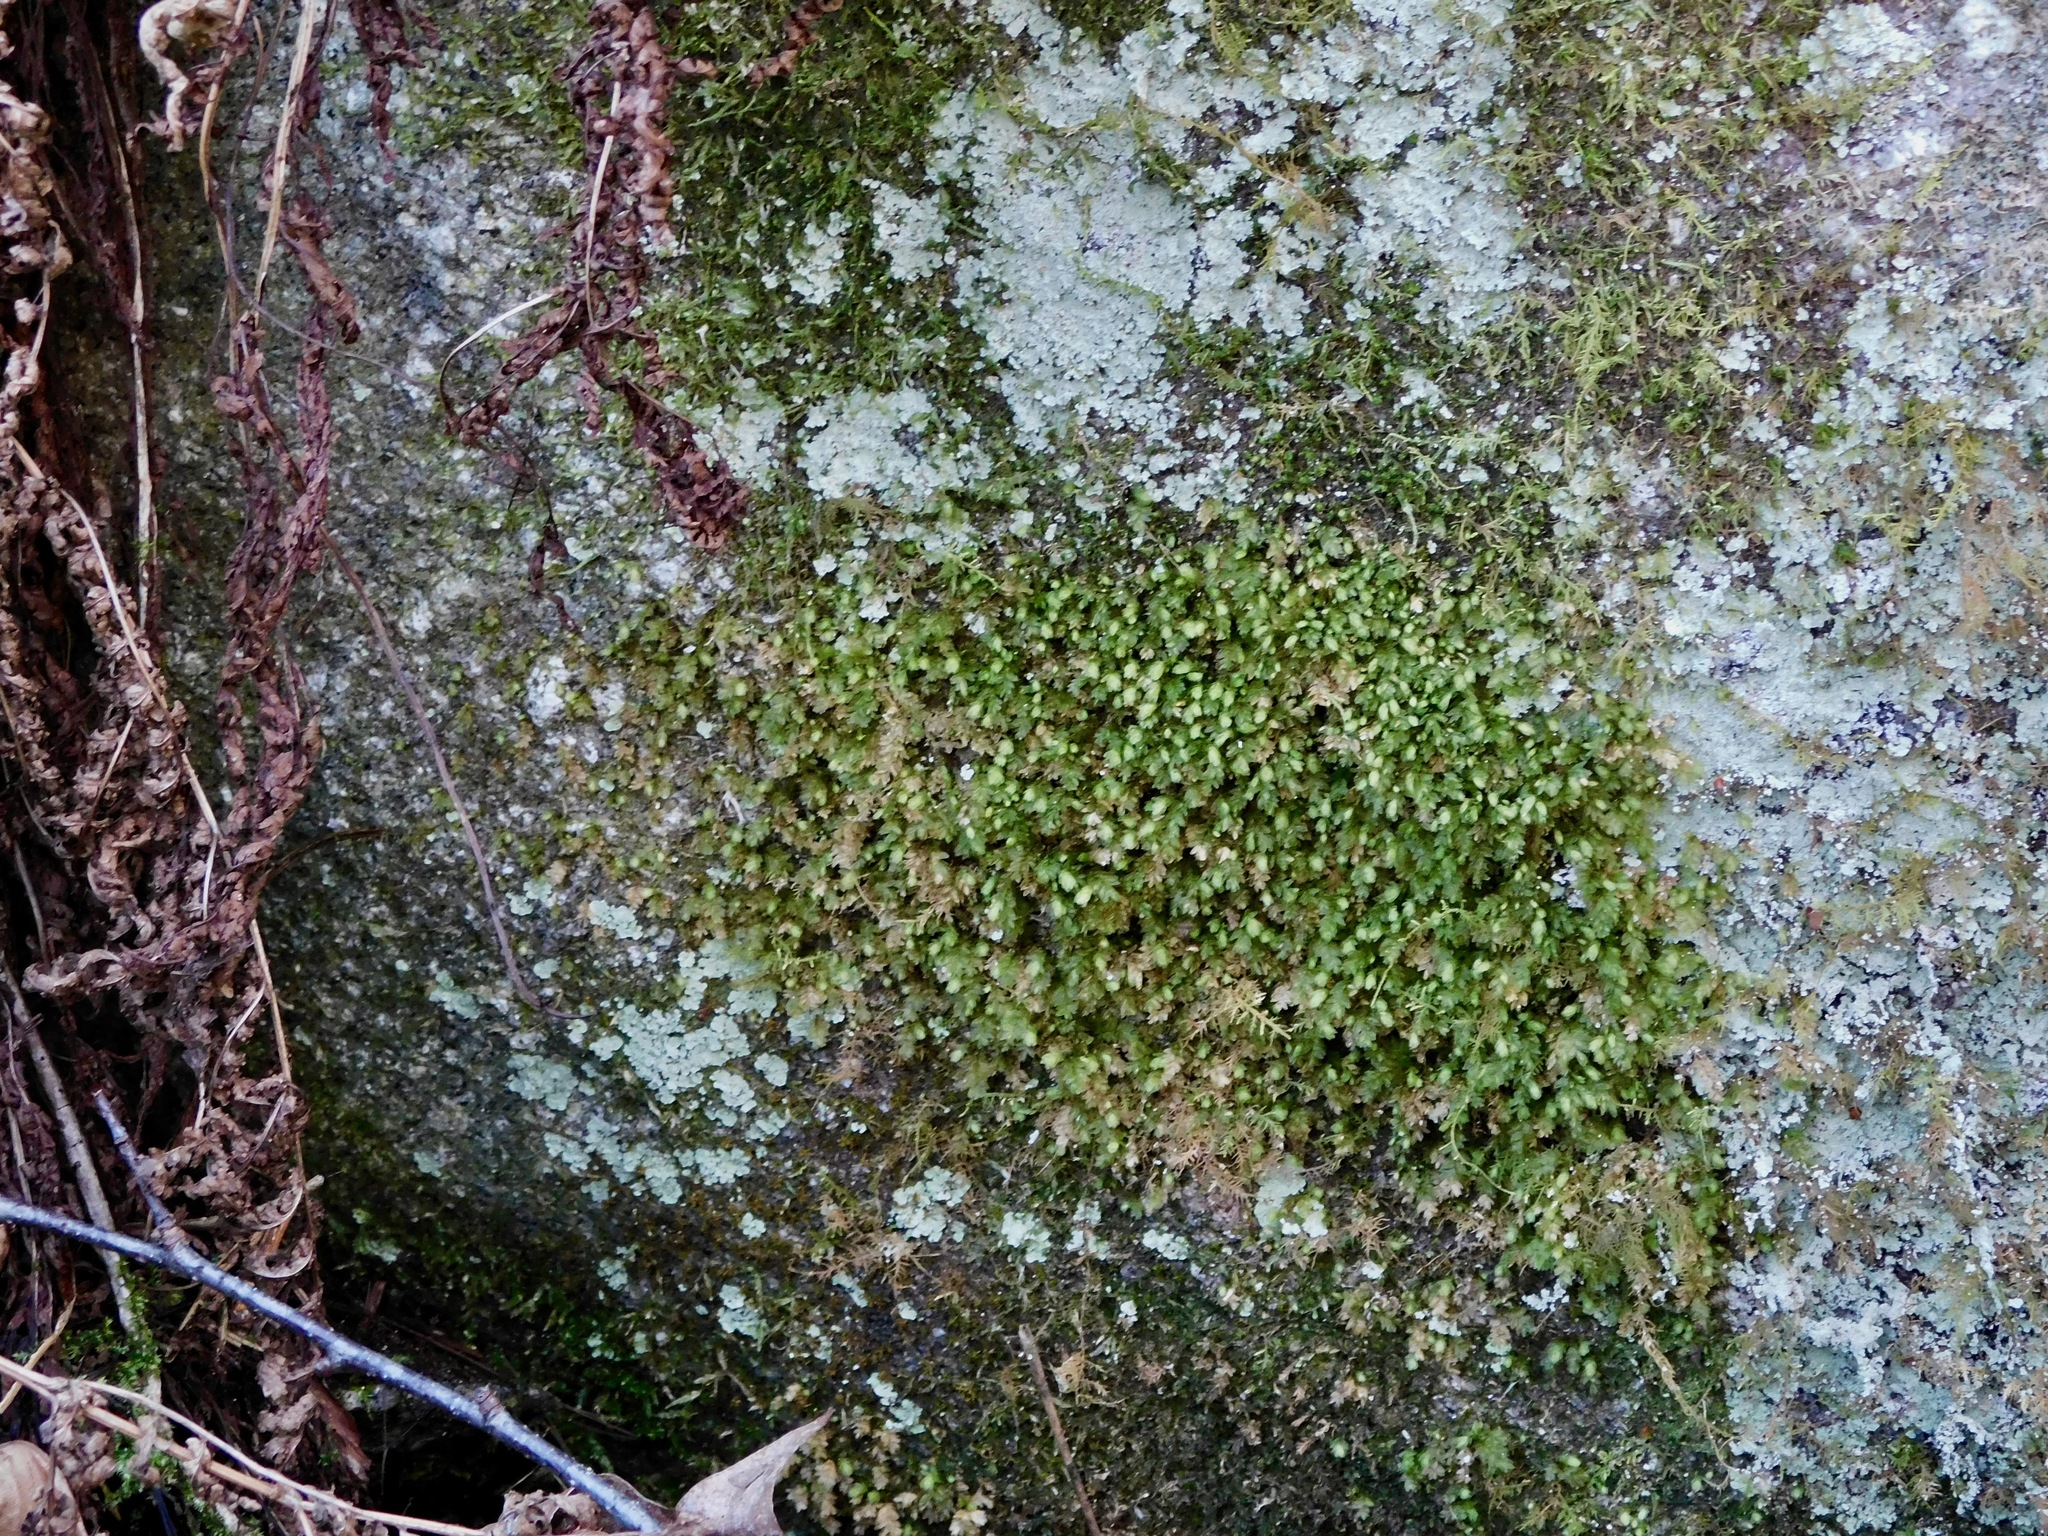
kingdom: Plantae
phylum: Bryophyta
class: Bryopsida
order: Dicranales
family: Fissidentaceae
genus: Fissidens
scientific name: Fissidens bryoides
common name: Lesser pocket moss
